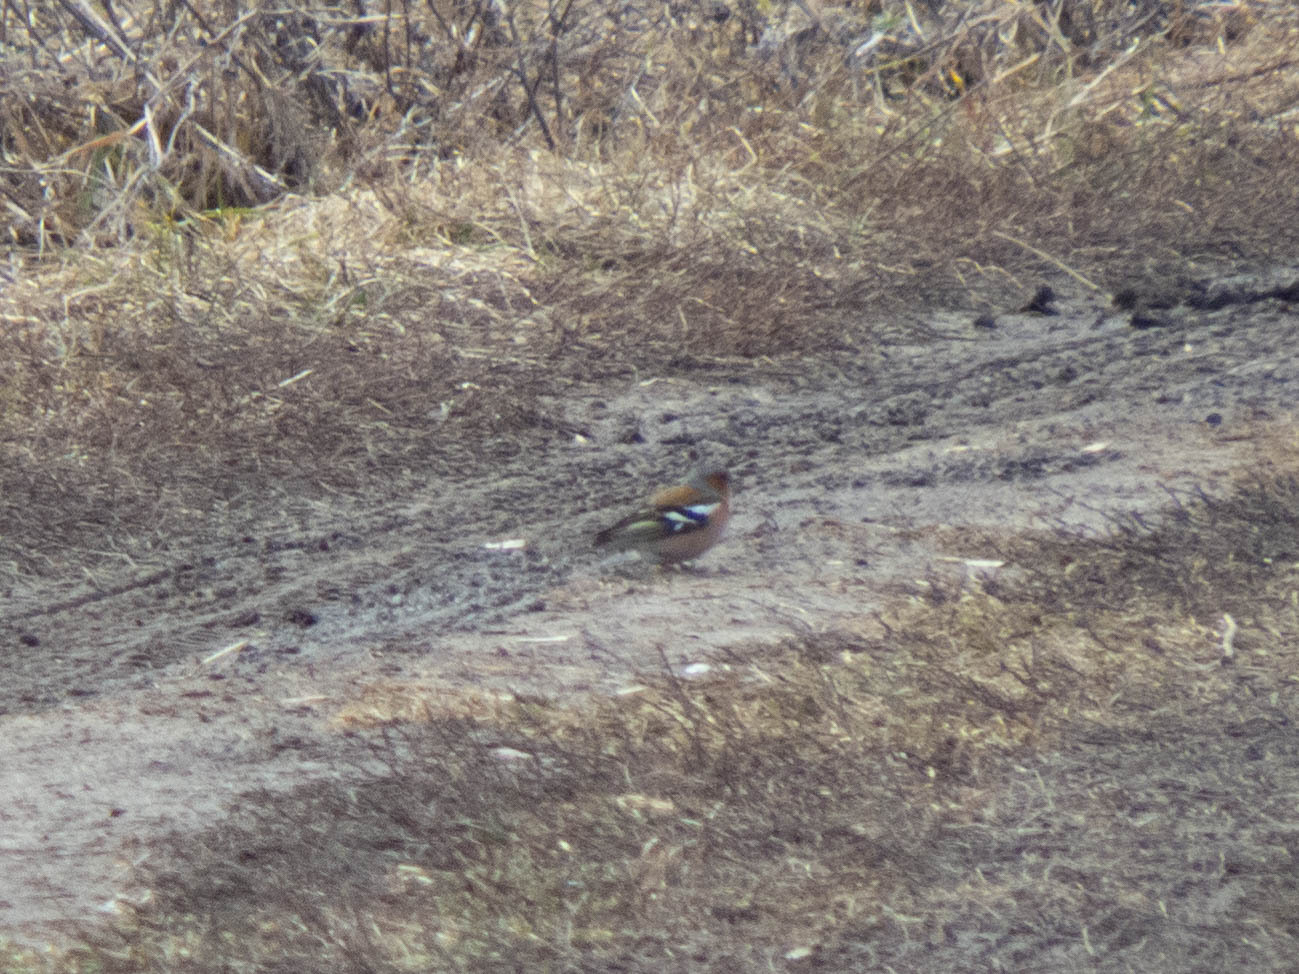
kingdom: Animalia
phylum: Chordata
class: Aves
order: Passeriformes
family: Fringillidae
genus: Fringilla
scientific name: Fringilla coelebs
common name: Common chaffinch
